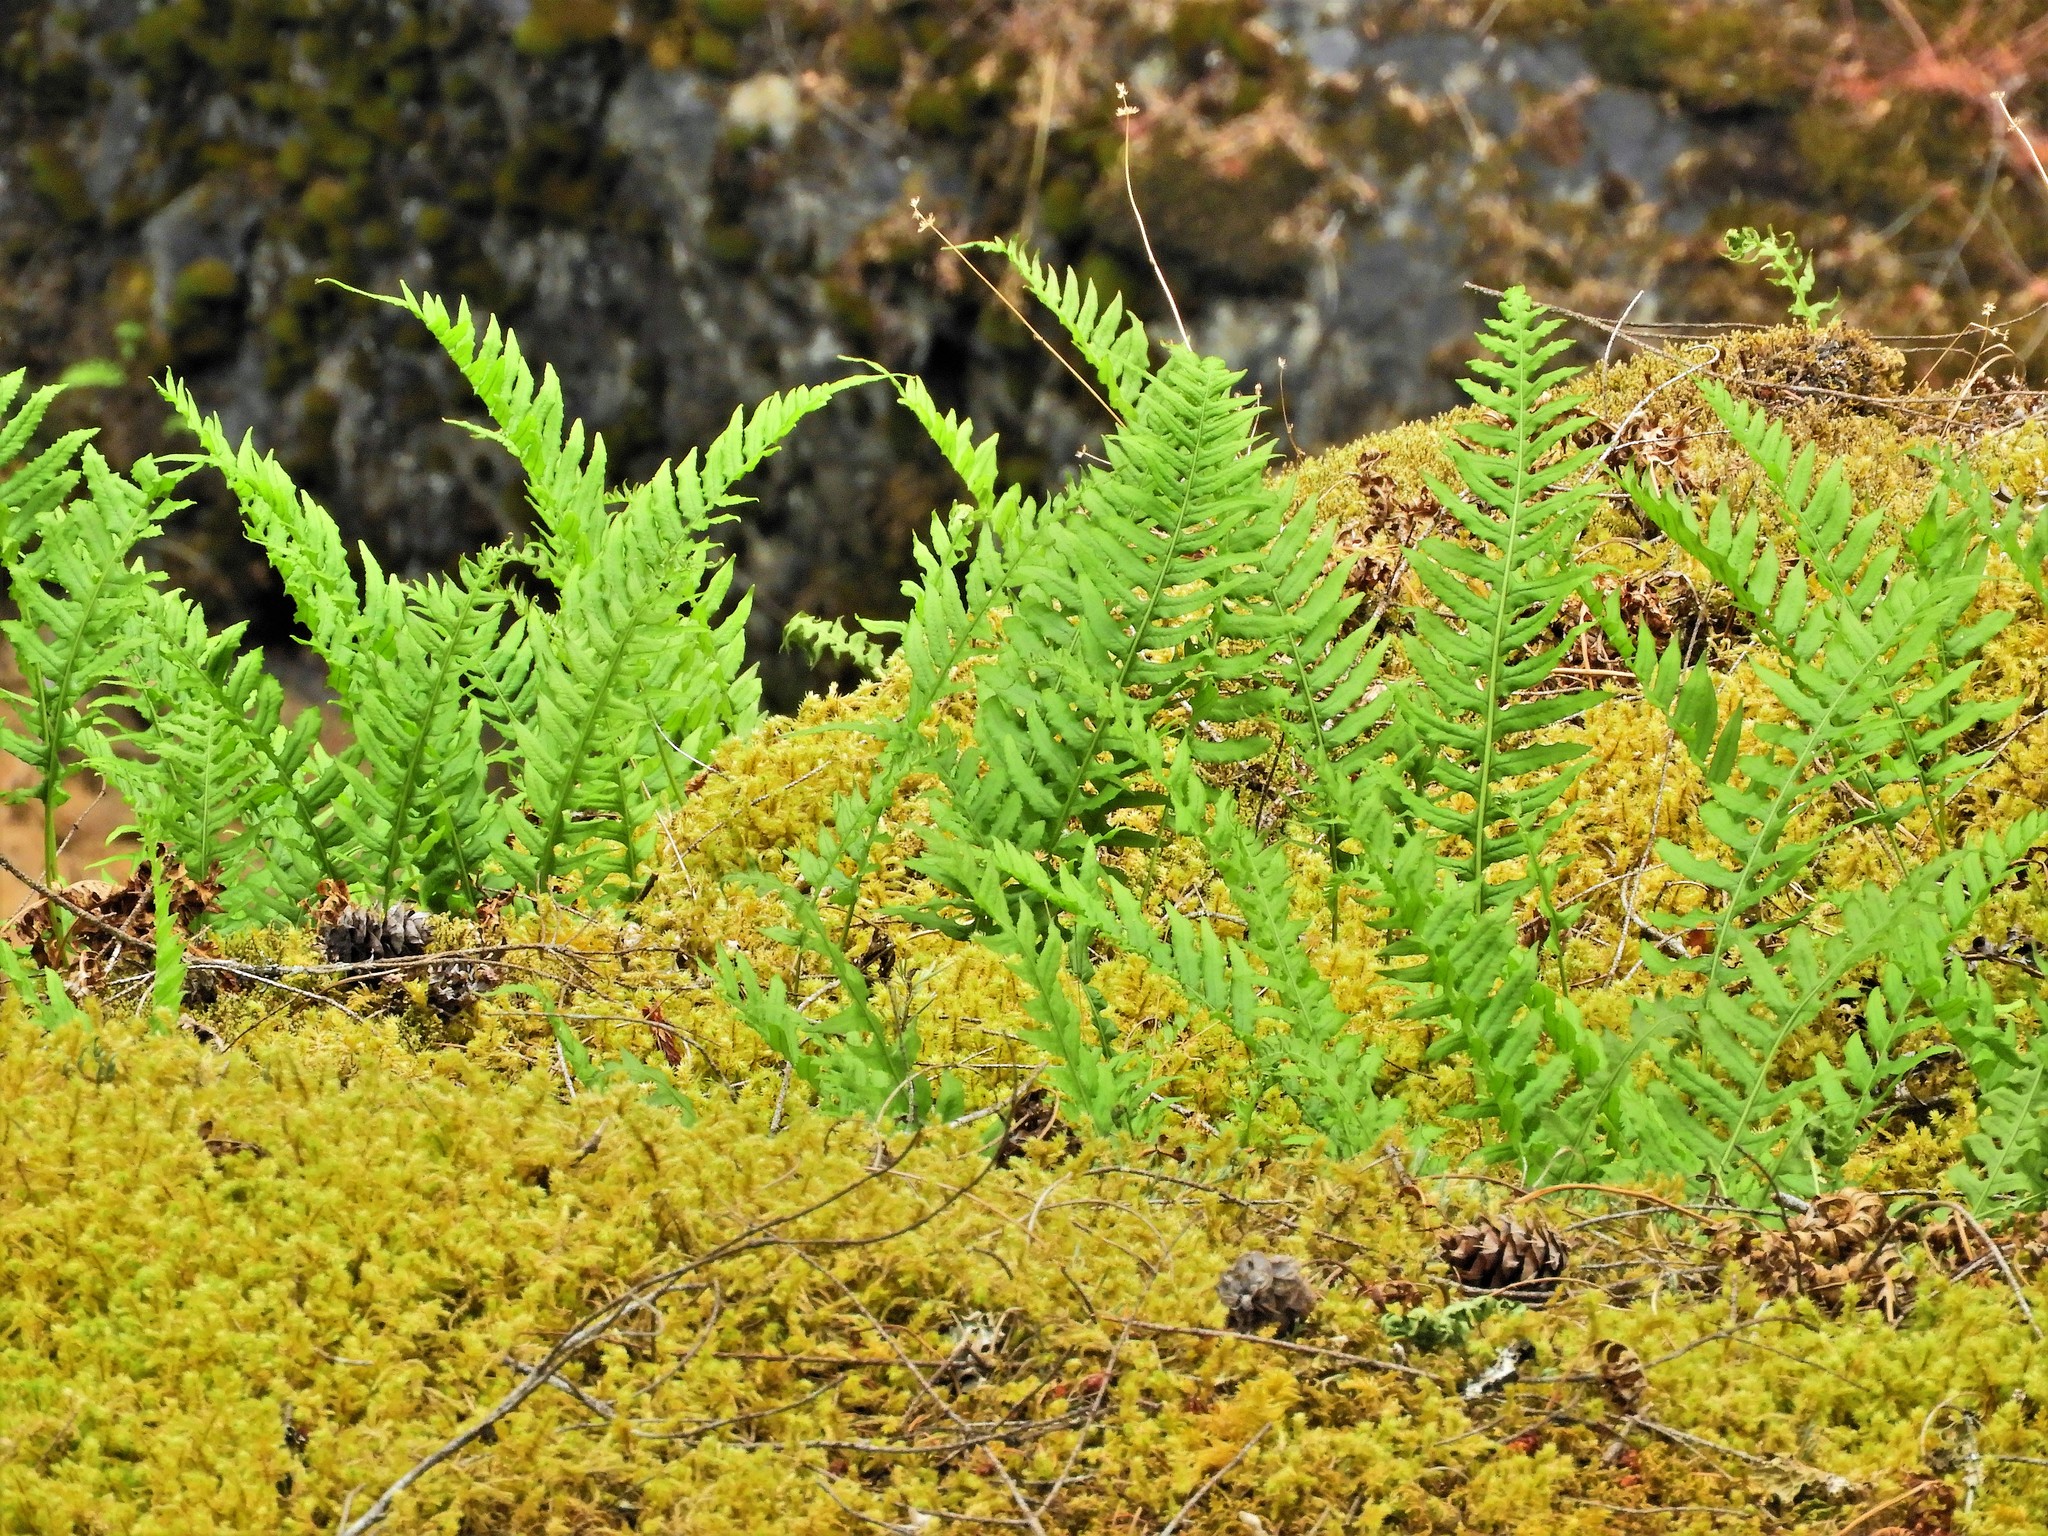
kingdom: Plantae
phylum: Tracheophyta
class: Polypodiopsida
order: Polypodiales
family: Polypodiaceae
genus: Polypodium
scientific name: Polypodium glycyrrhiza
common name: Licorice fern
